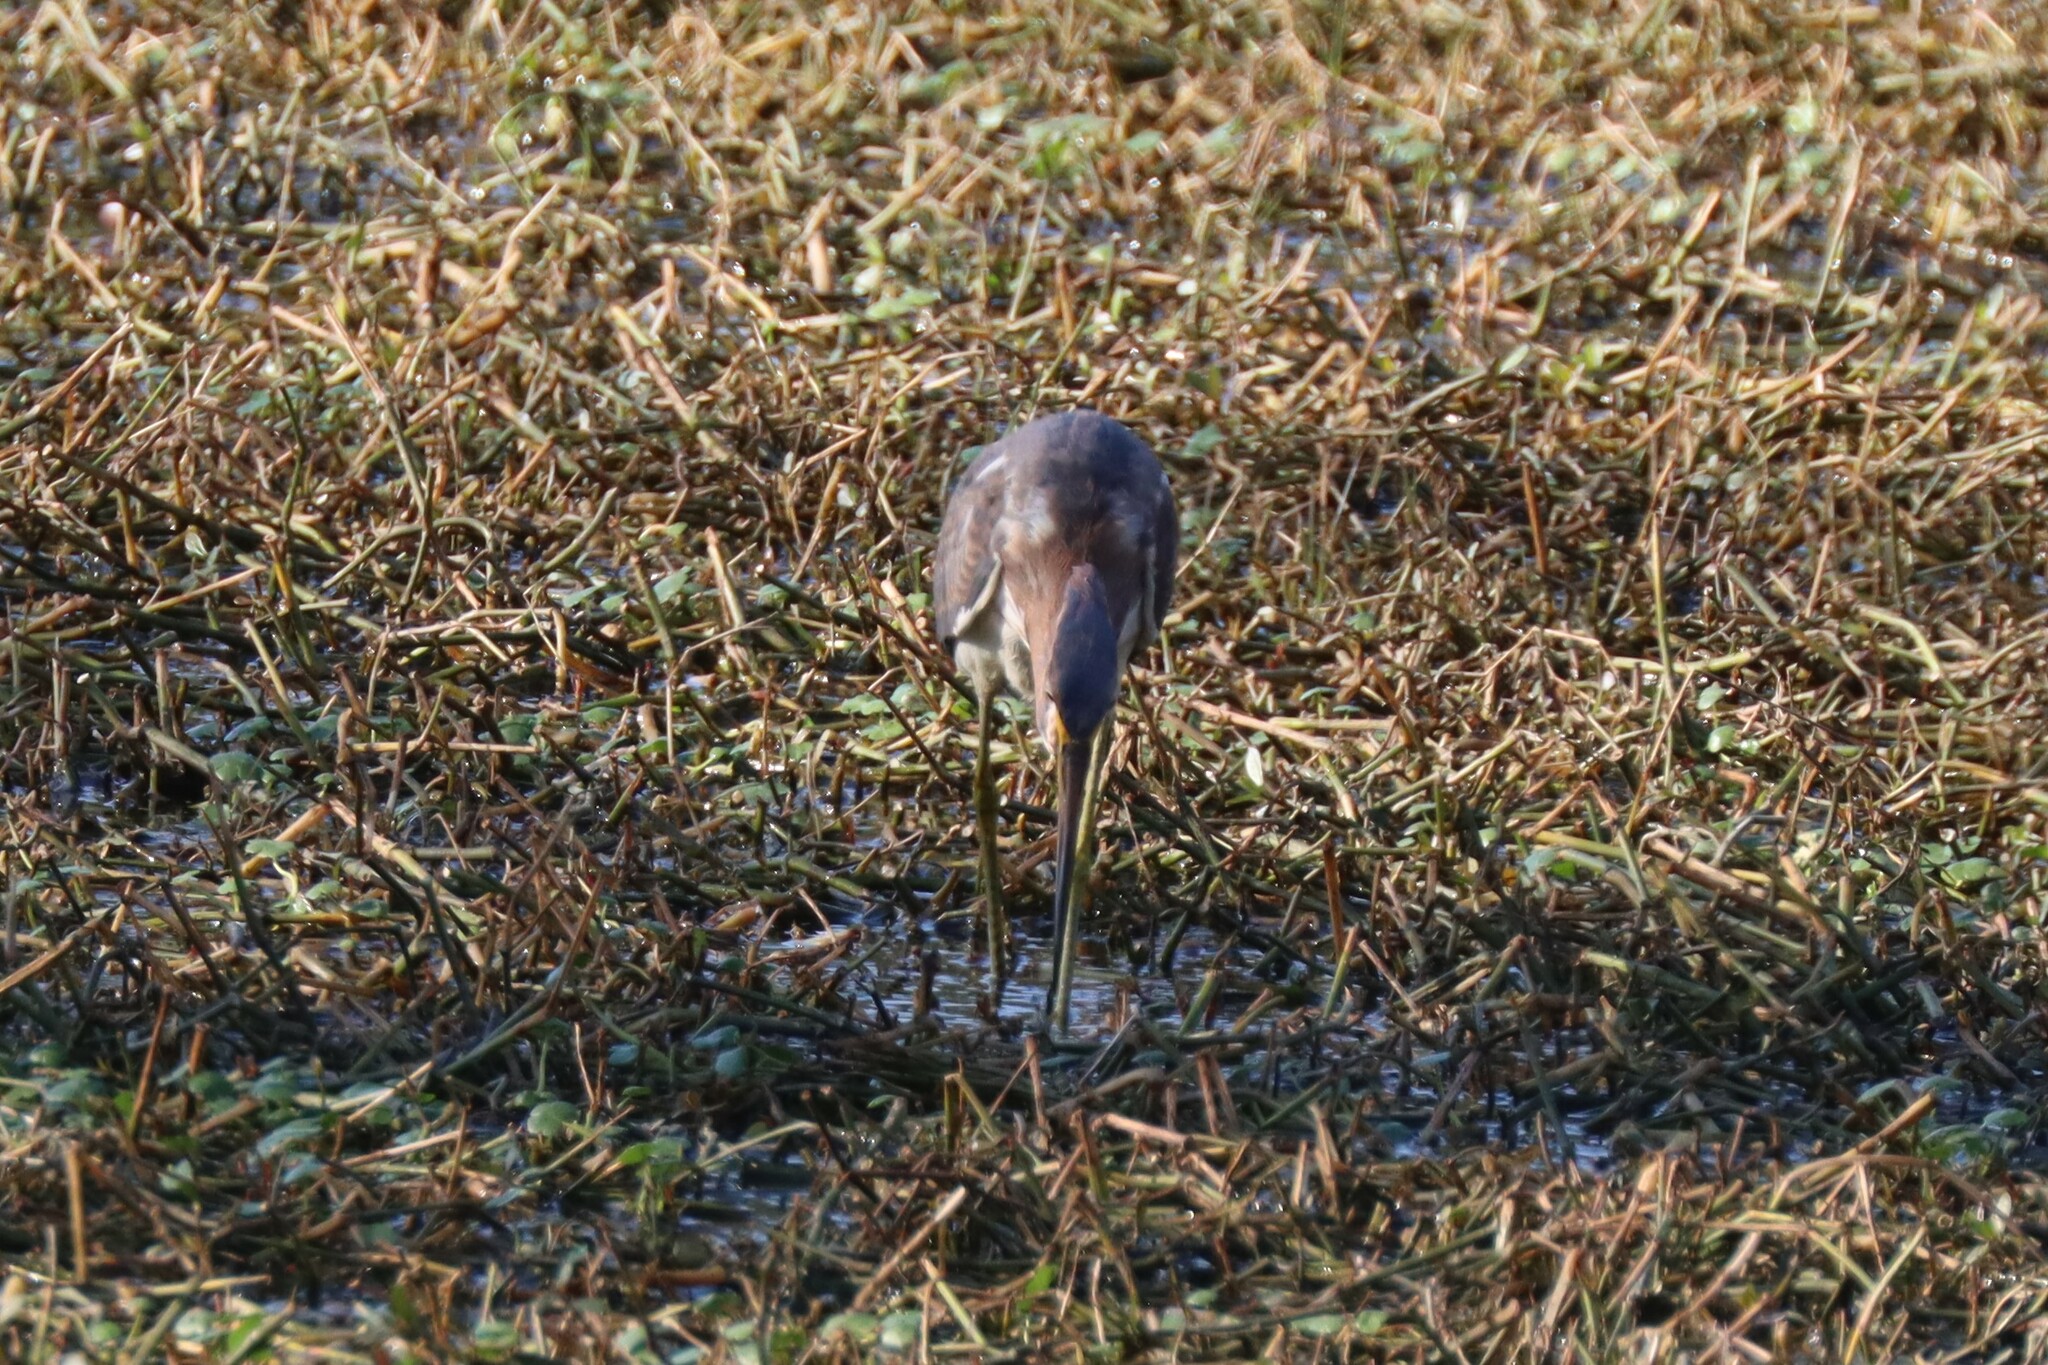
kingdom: Animalia
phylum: Chordata
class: Aves
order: Pelecaniformes
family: Ardeidae
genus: Egretta
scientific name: Egretta tricolor
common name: Tricolored heron
